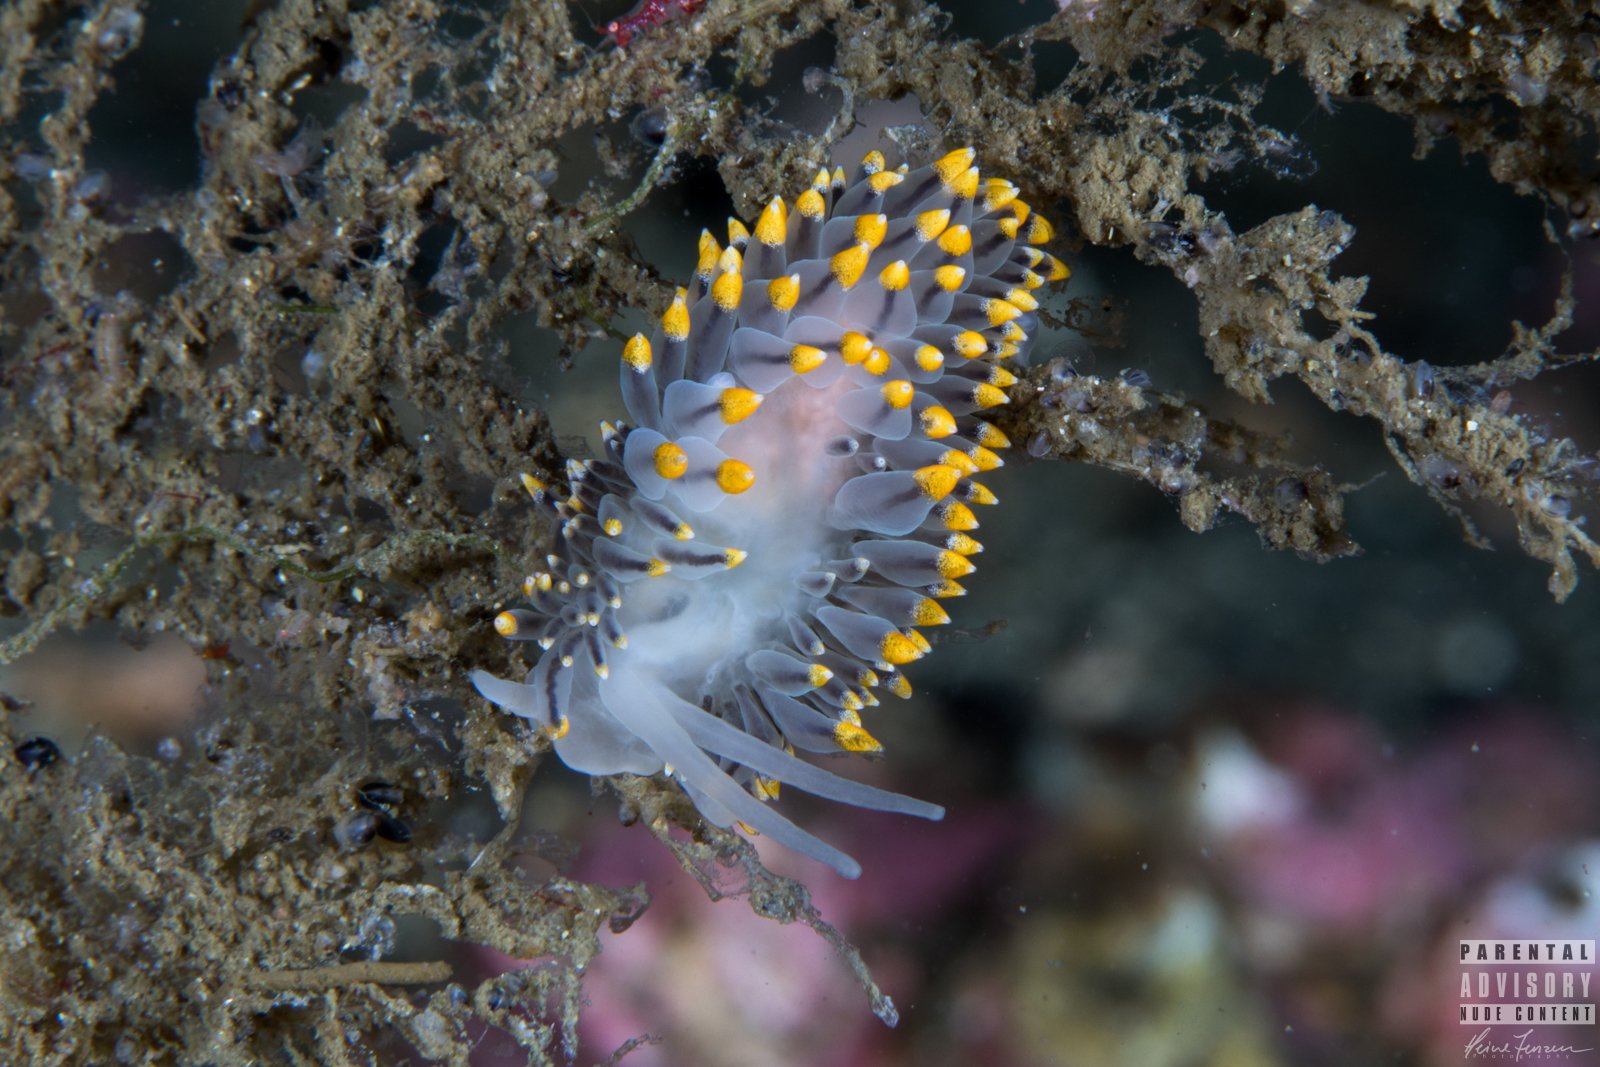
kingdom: Animalia
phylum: Mollusca
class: Gastropoda
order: Nudibranchia
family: Eubranchidae
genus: Eubranchus
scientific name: Eubranchus tricolor
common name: Painted balloon aeolis
